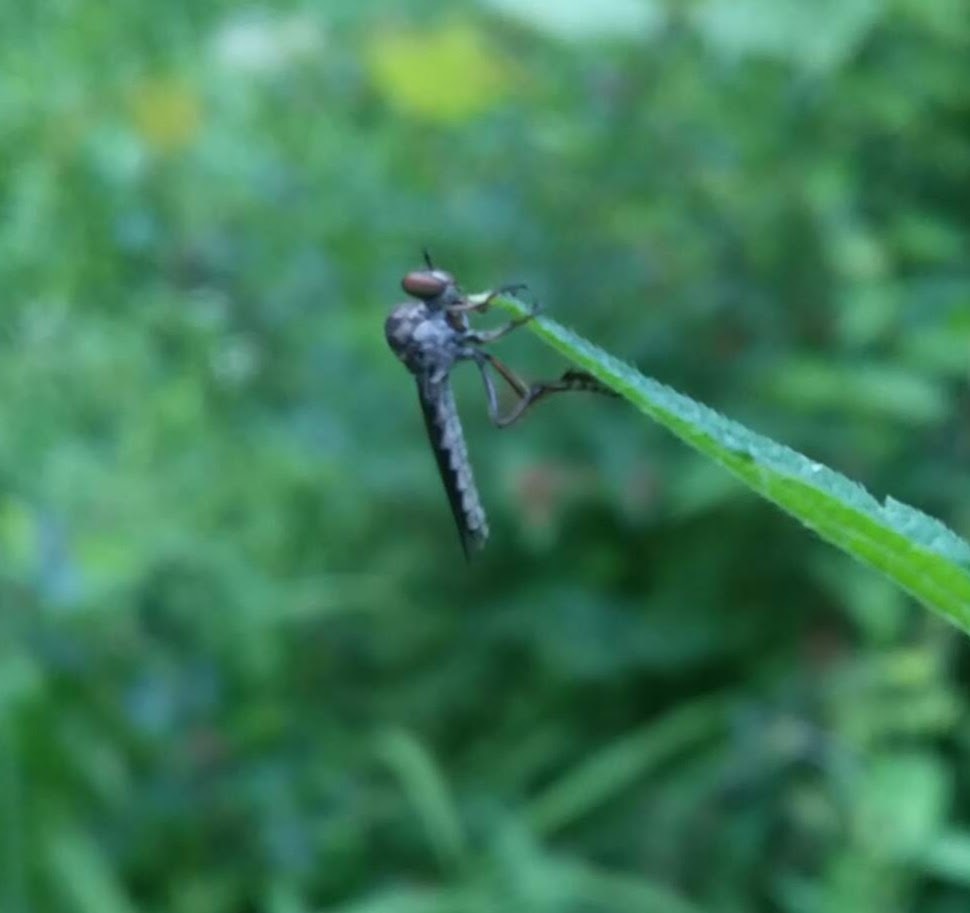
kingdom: Animalia
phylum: Arthropoda
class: Insecta
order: Diptera
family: Asilidae
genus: Holcocephala
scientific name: Holcocephala calva
